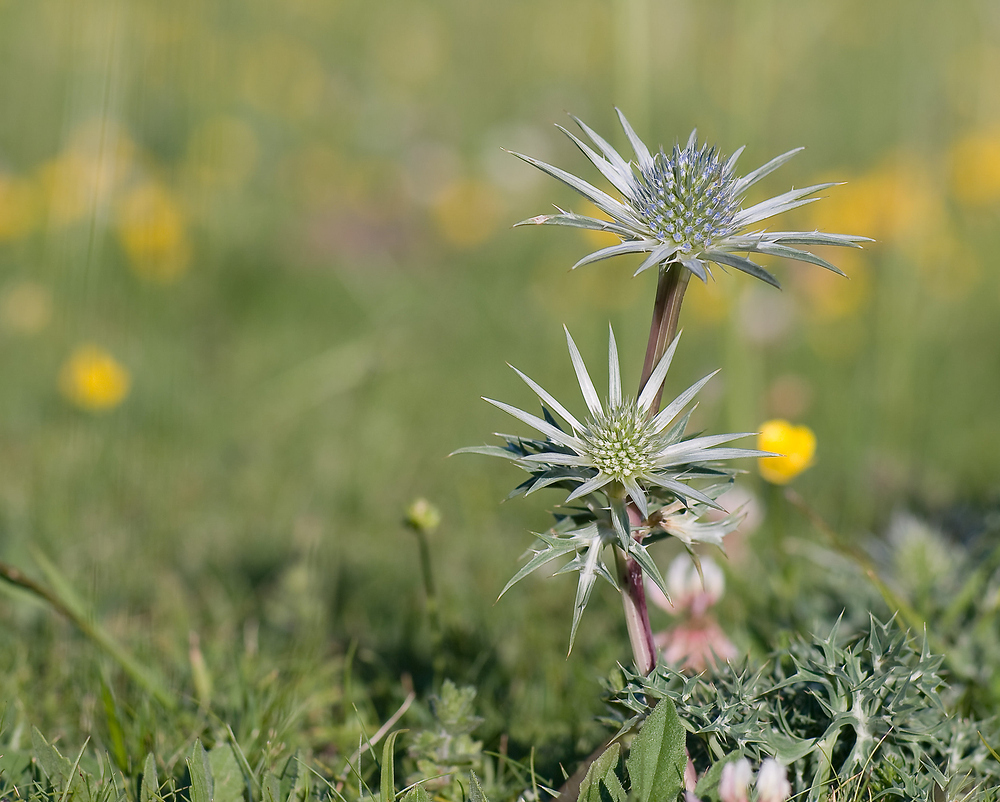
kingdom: Plantae
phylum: Tracheophyta
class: Magnoliopsida
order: Apiales
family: Apiaceae
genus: Eryngium
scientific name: Eryngium bourgatii
